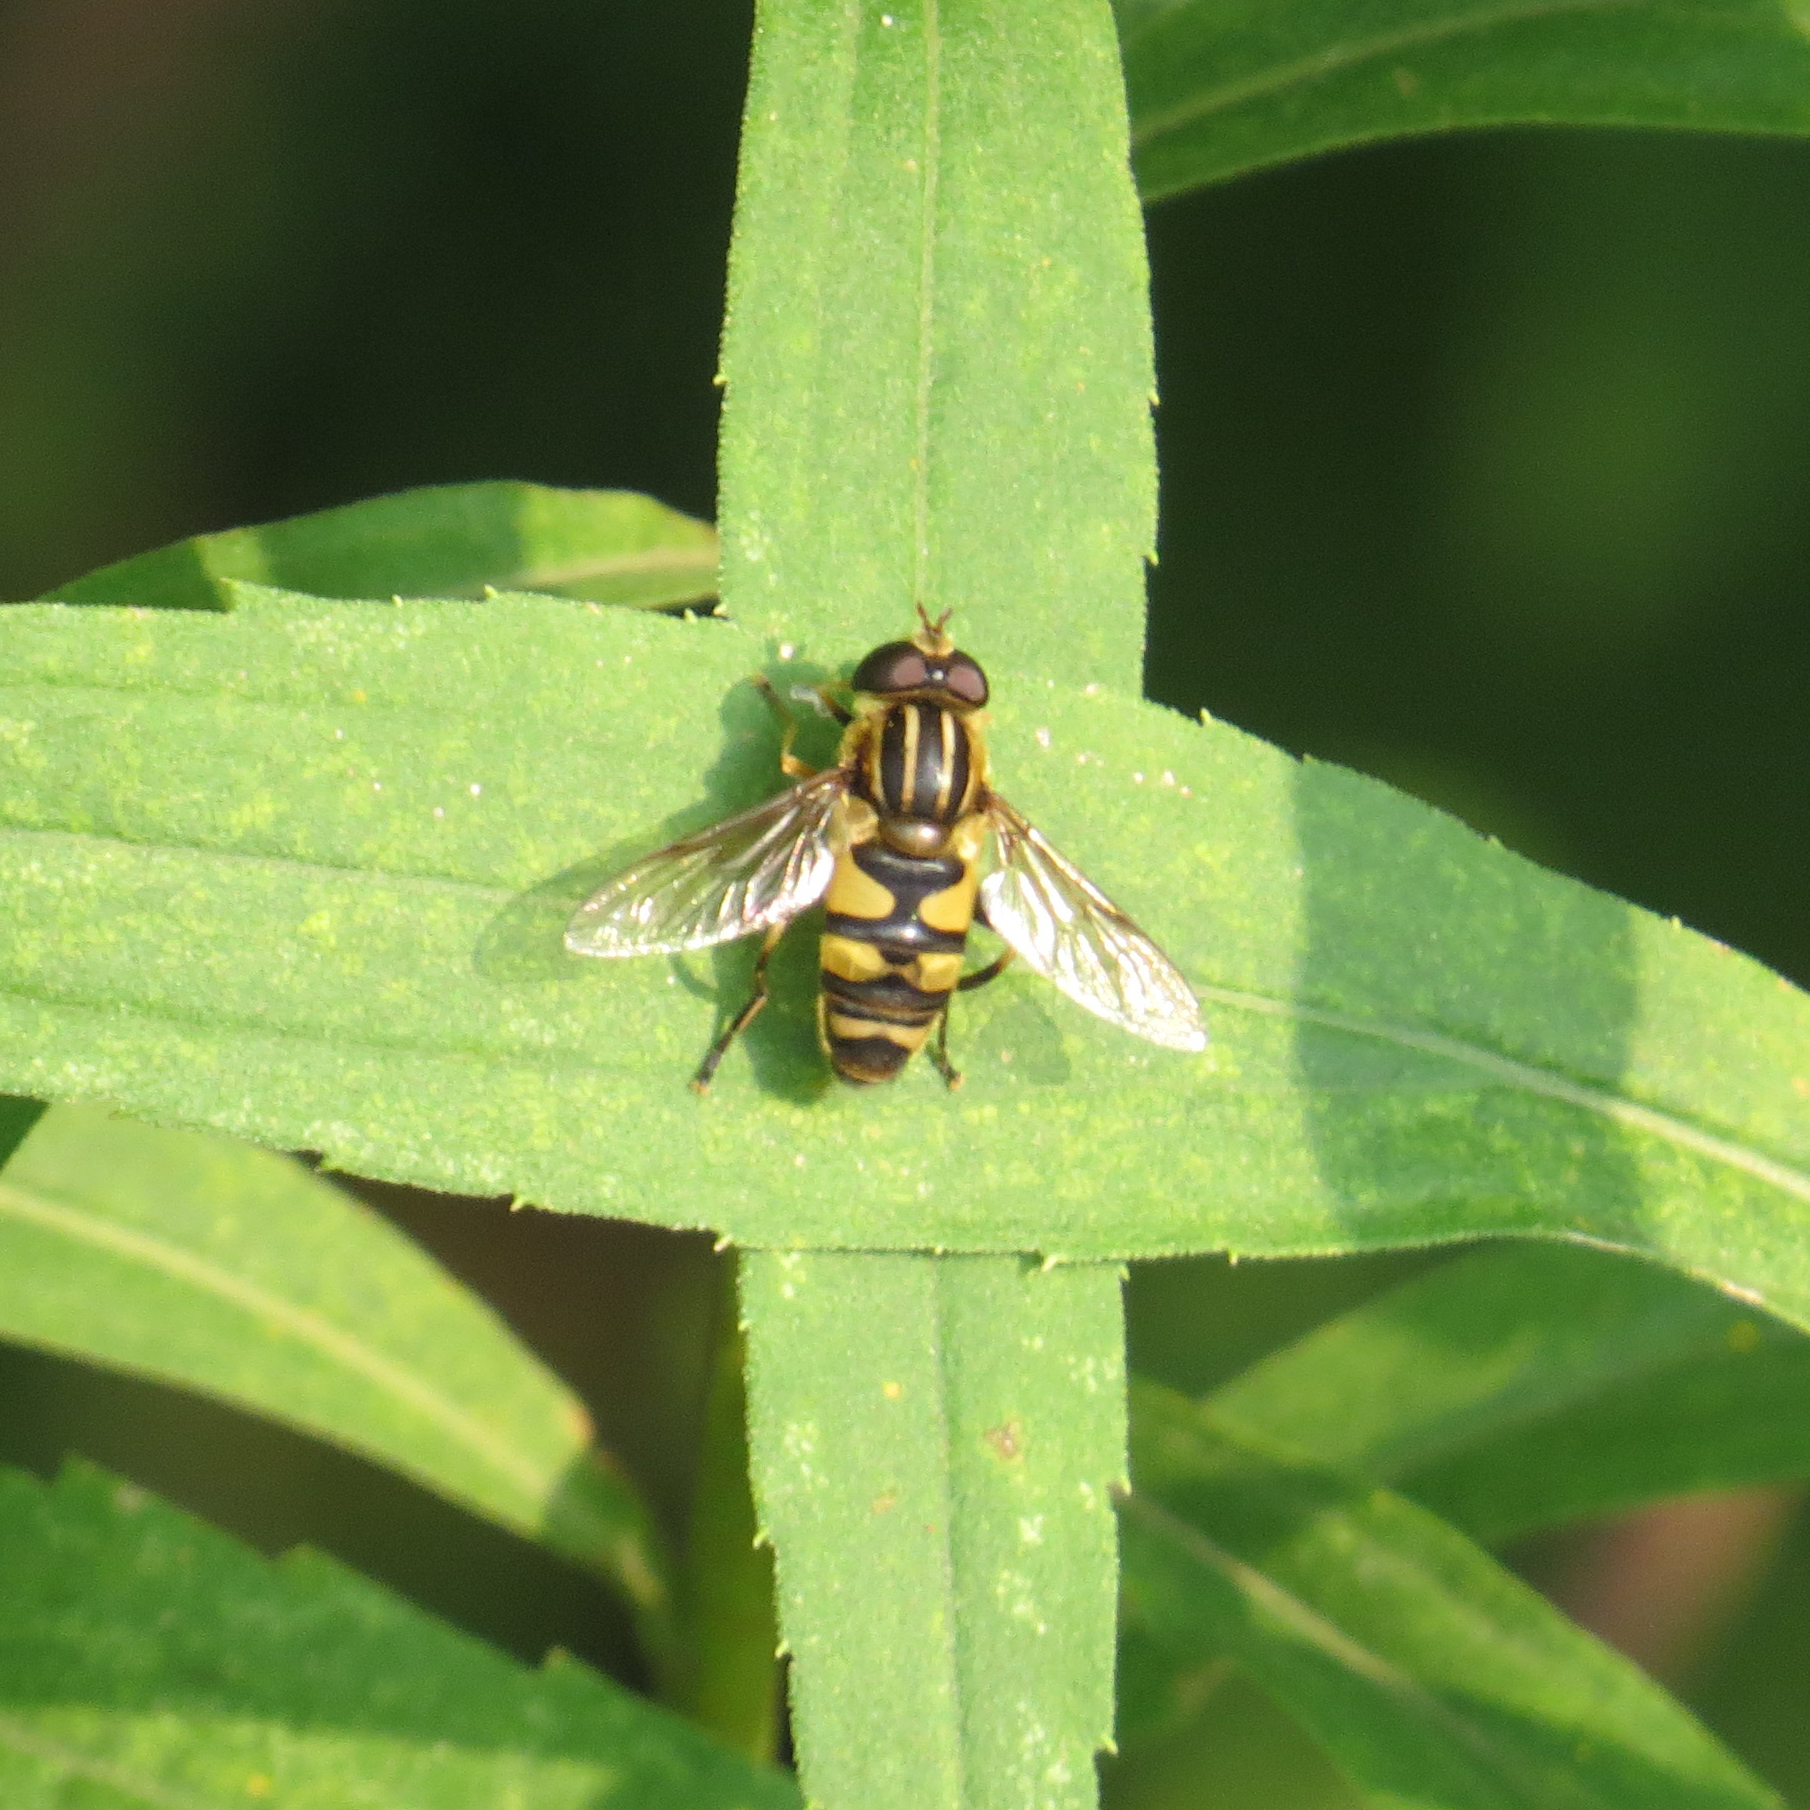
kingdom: Animalia
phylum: Arthropoda
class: Insecta
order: Diptera
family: Syrphidae
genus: Helophilus
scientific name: Helophilus fasciatus
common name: Narrow-headed marsh fly
